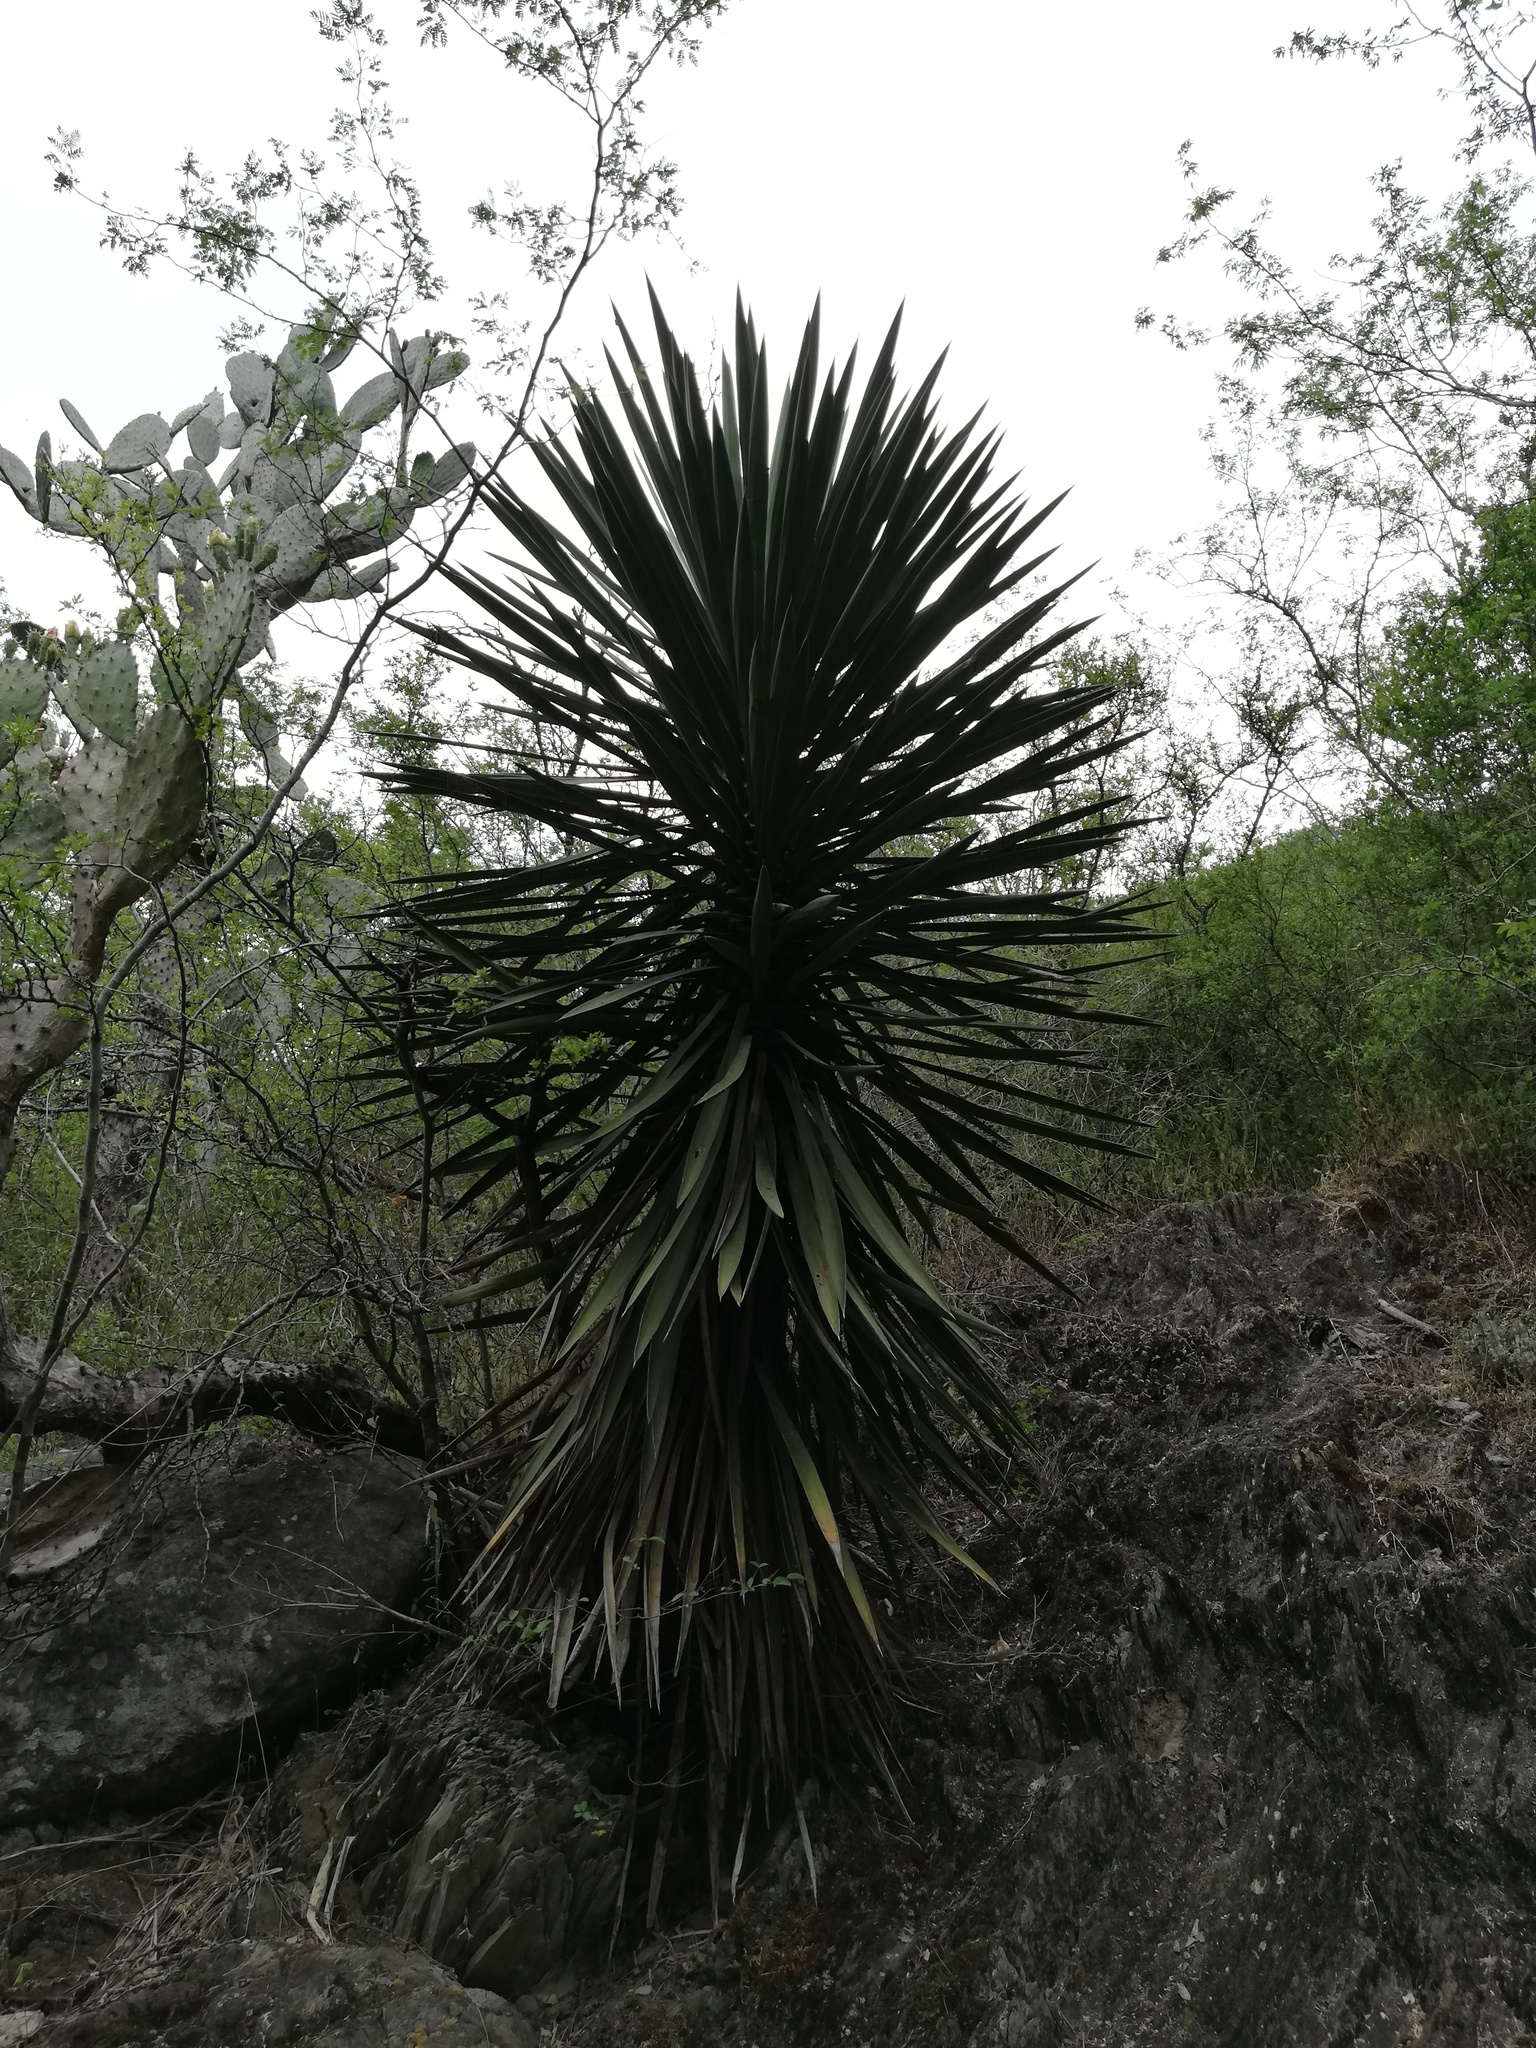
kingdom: Plantae
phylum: Tracheophyta
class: Liliopsida
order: Asparagales
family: Asparagaceae
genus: Yucca
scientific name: Yucca filifera
